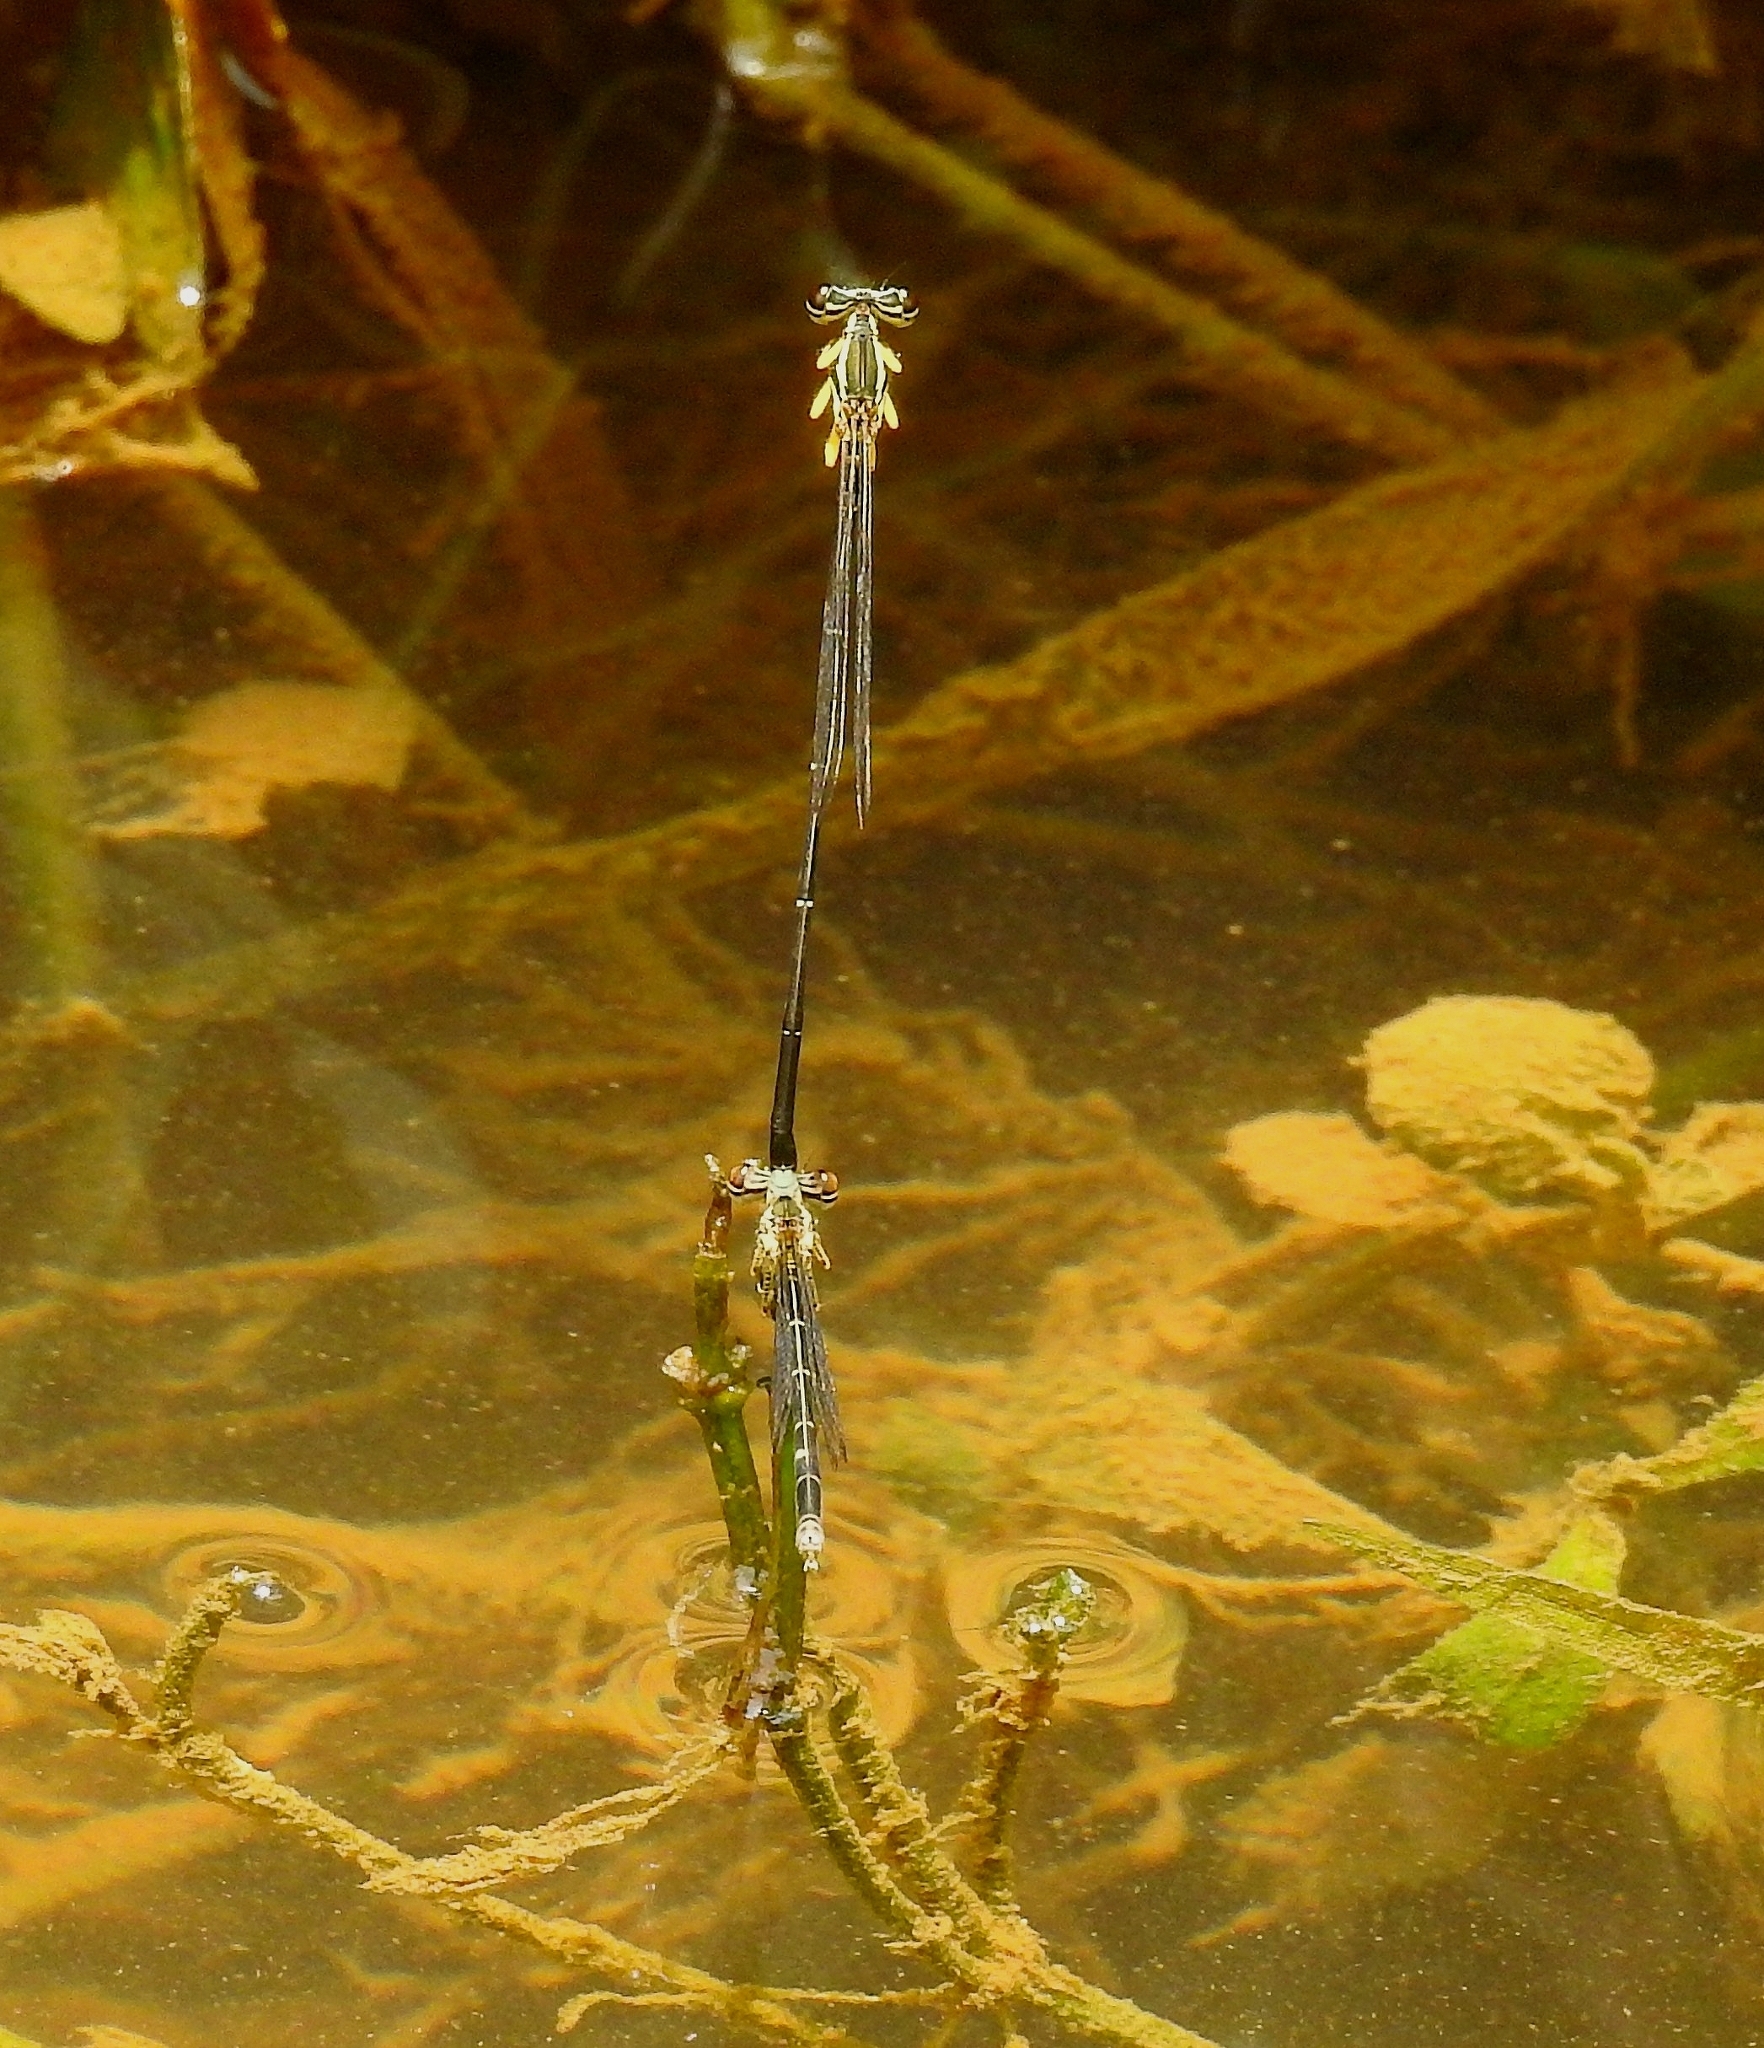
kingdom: Animalia
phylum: Arthropoda
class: Insecta
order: Odonata
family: Platycnemididae
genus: Copera
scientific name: Copera marginipes
